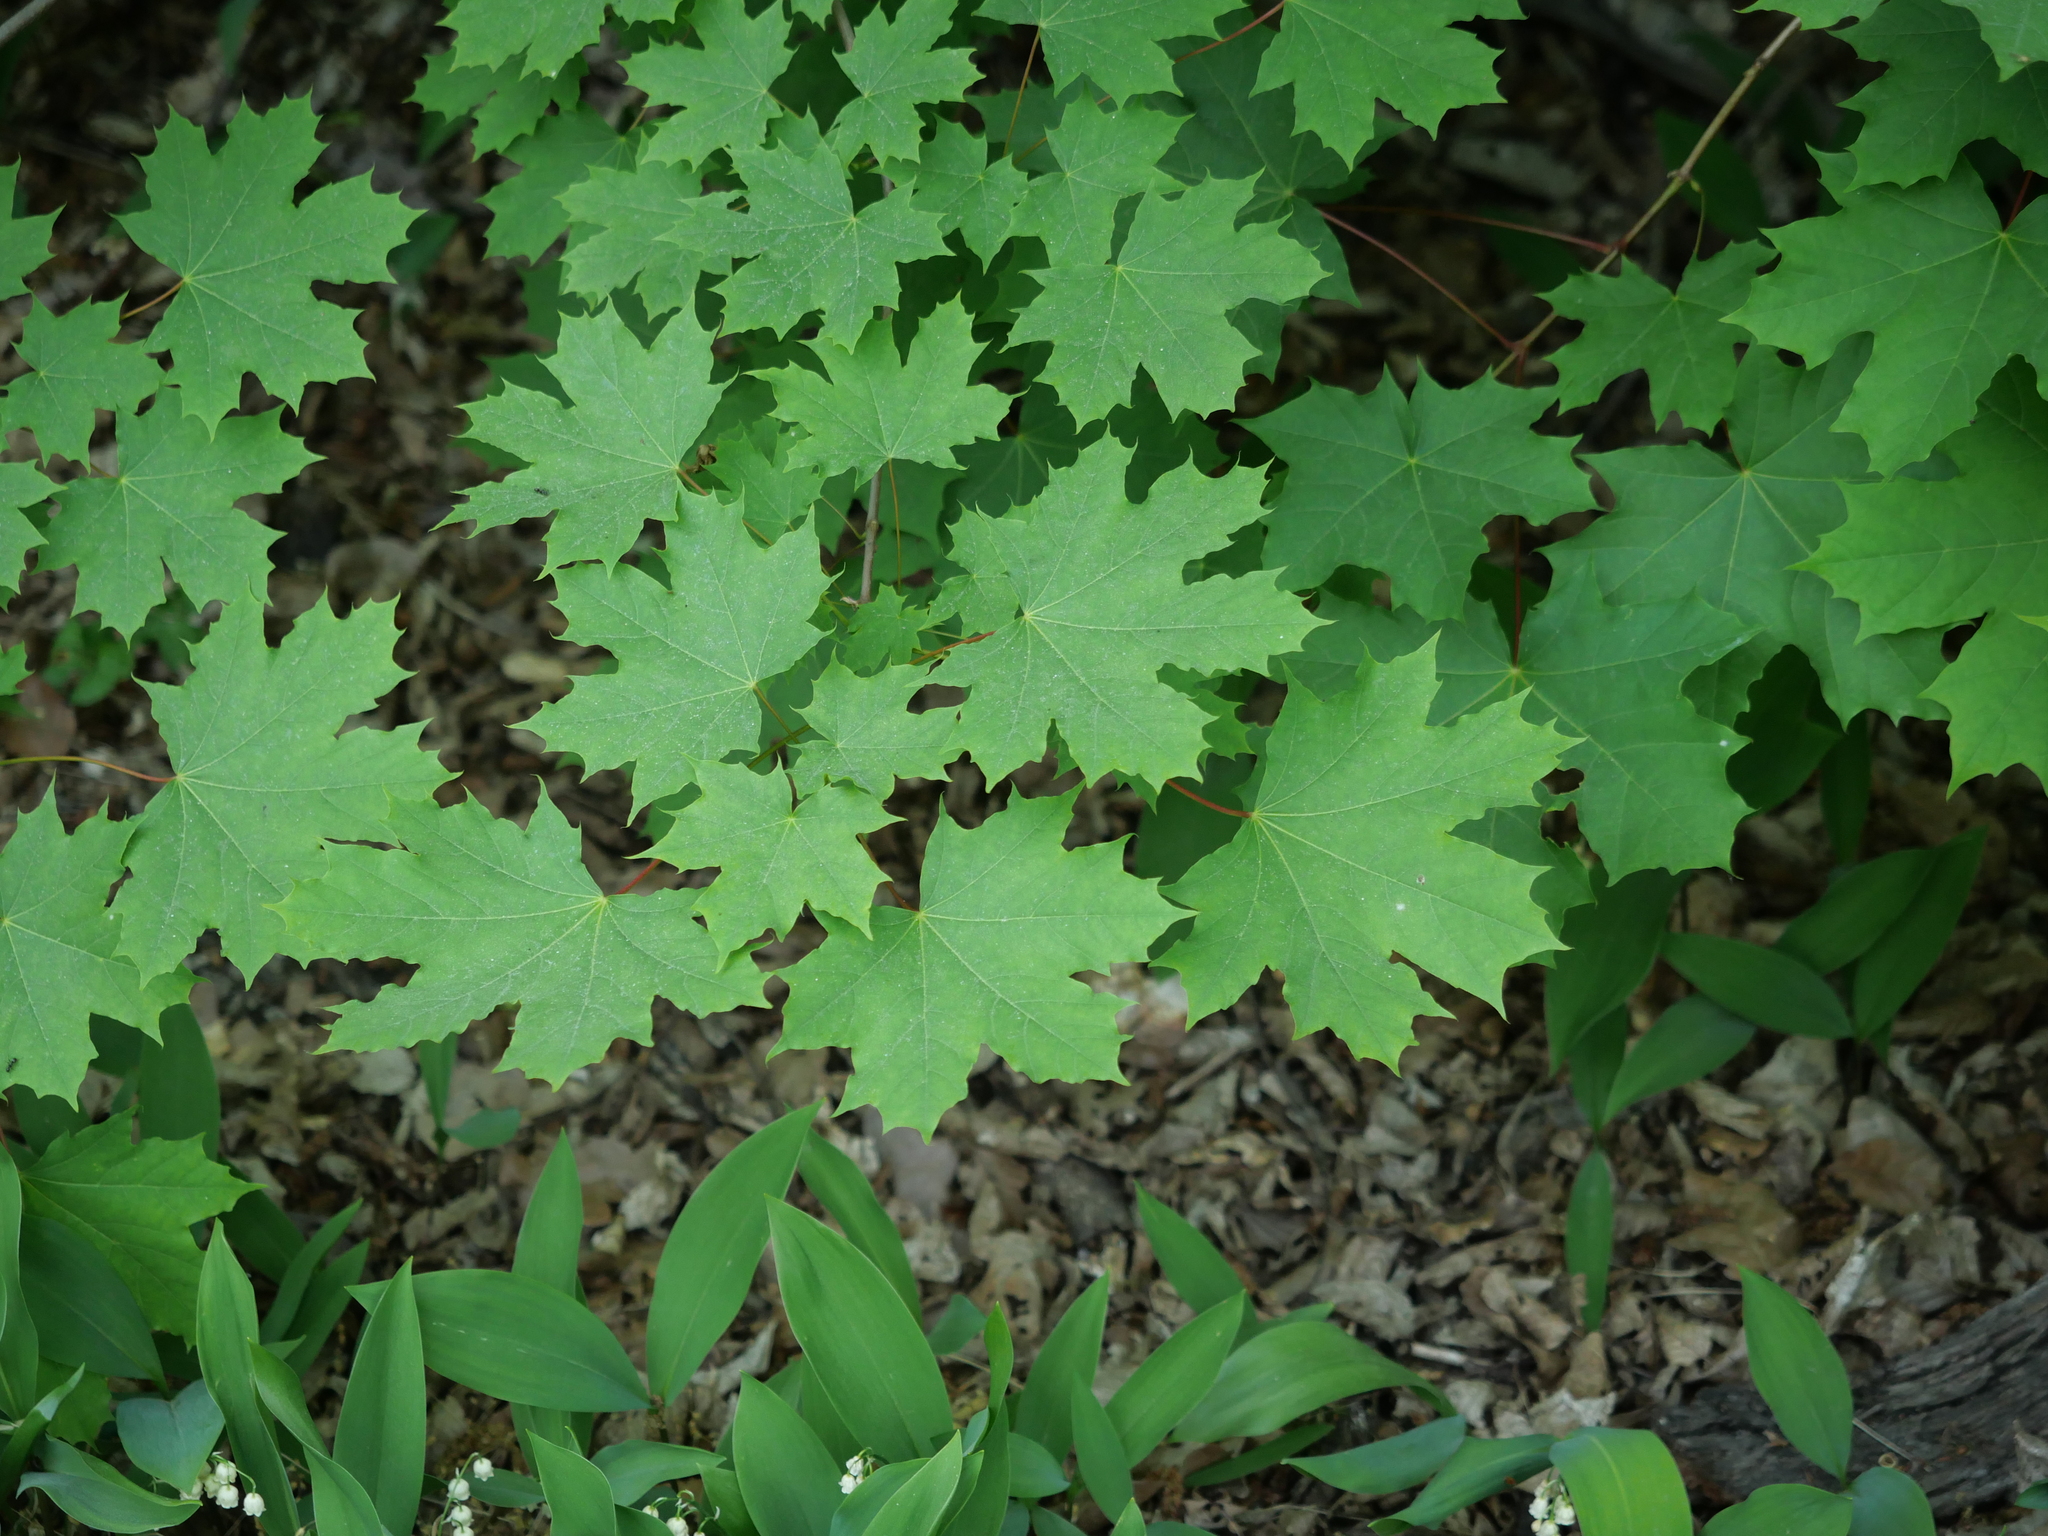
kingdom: Plantae
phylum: Tracheophyta
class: Magnoliopsida
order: Sapindales
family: Sapindaceae
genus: Acer
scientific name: Acer platanoides
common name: Norway maple
